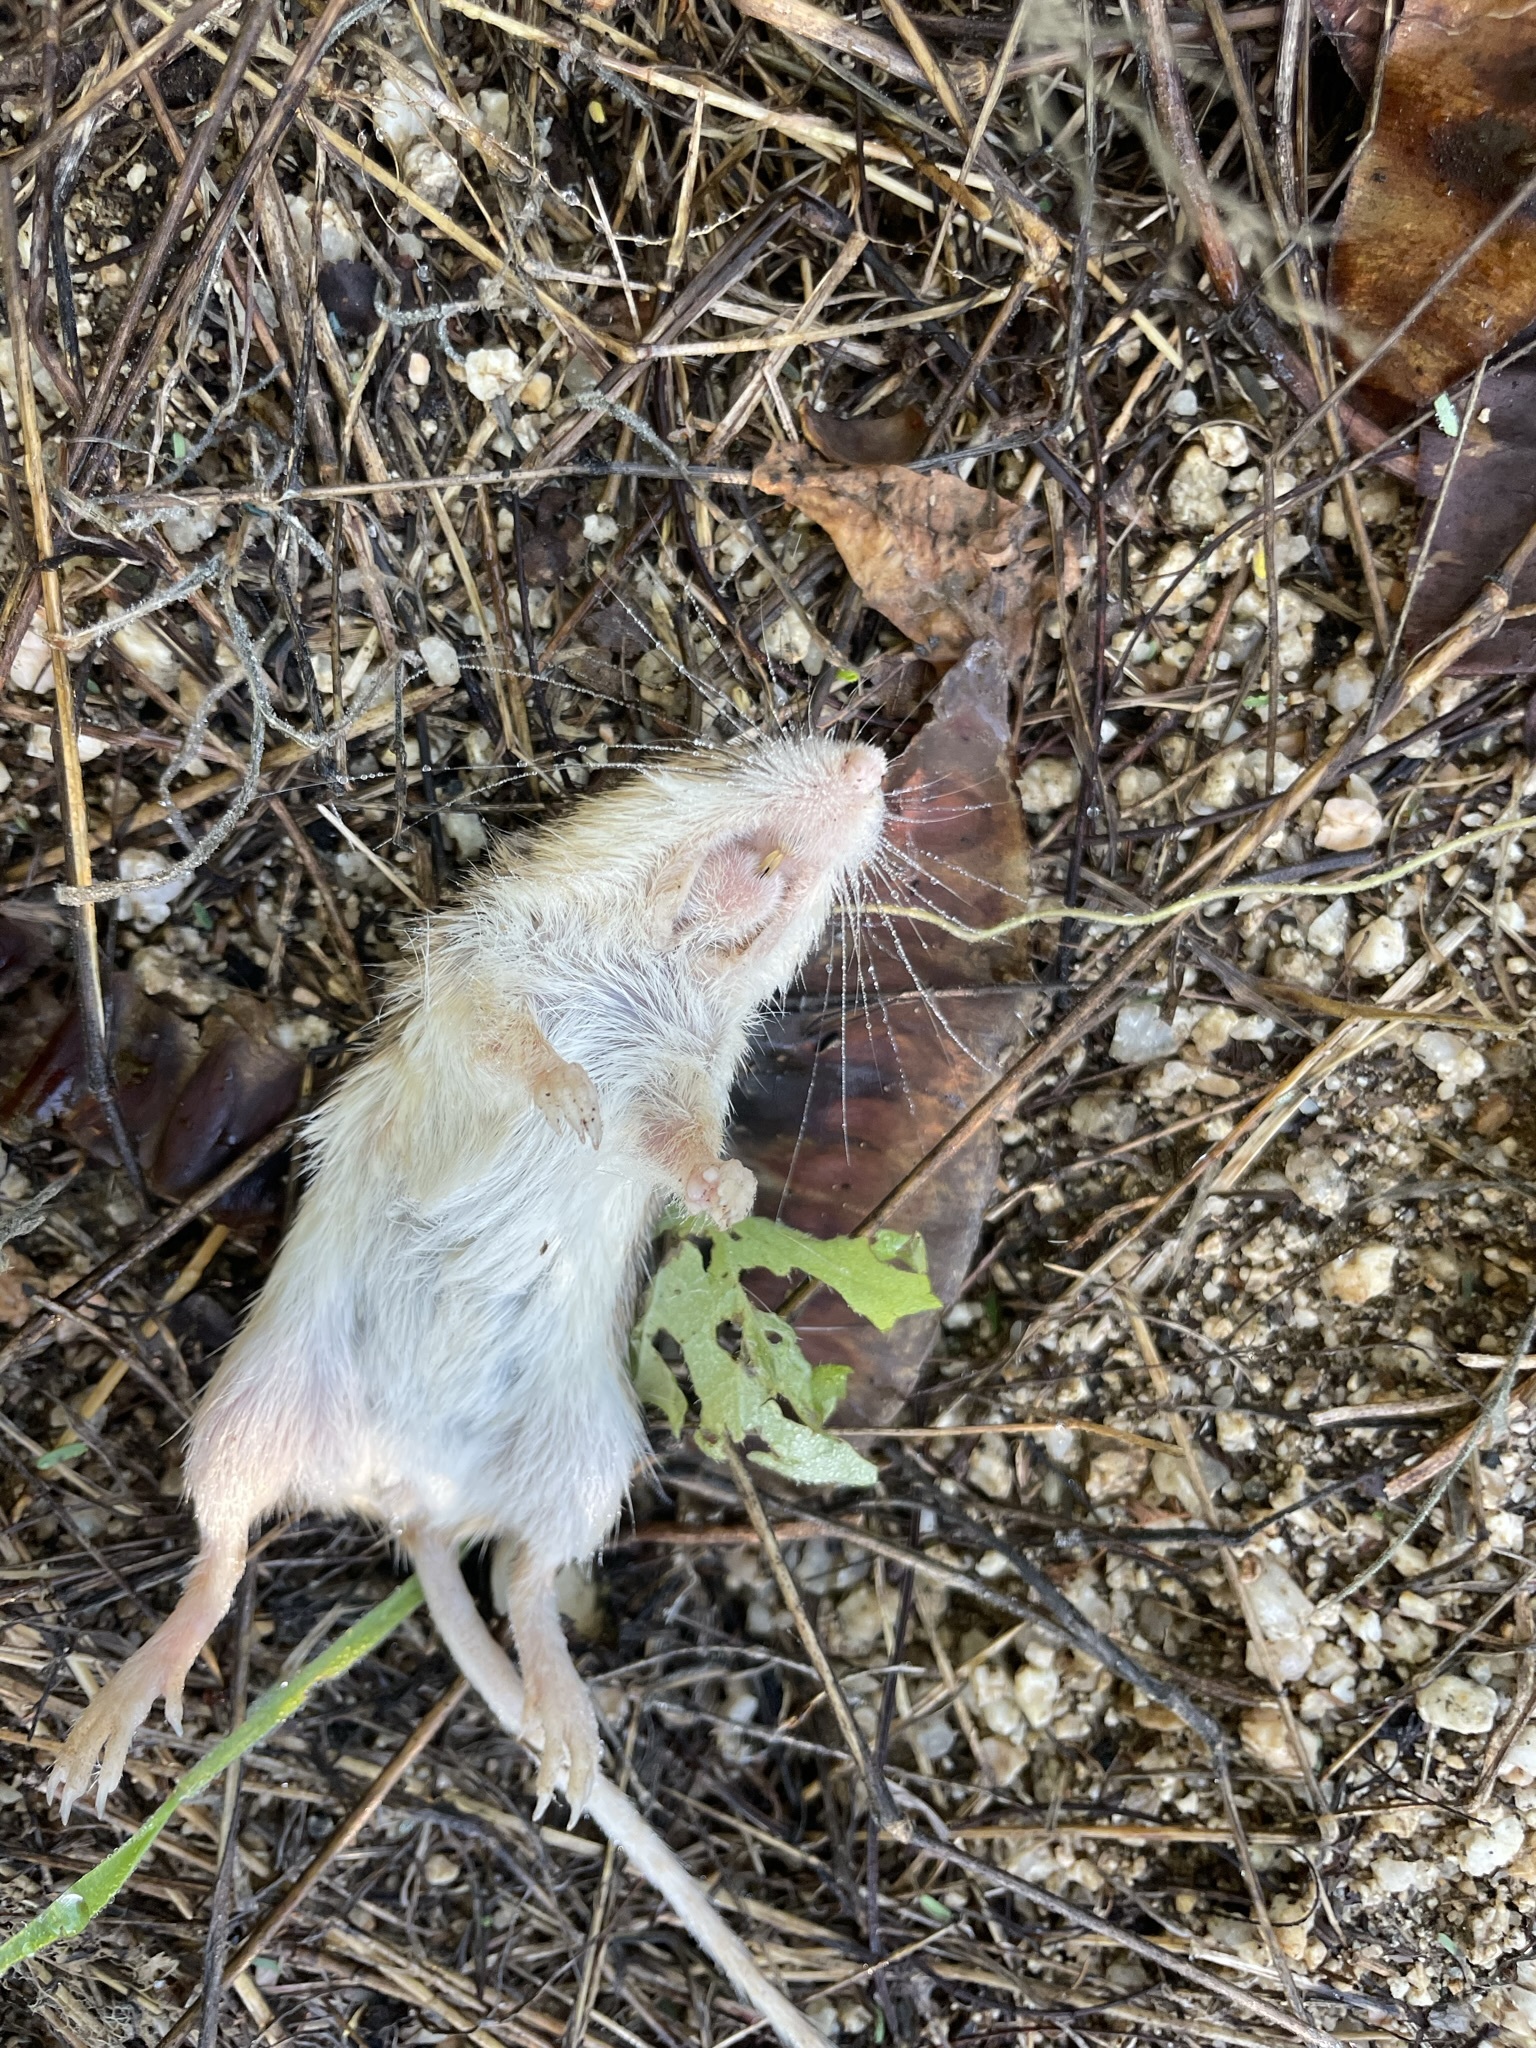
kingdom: Animalia
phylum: Chordata
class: Mammalia
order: Rodentia
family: Heteromyidae
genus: Chaetodipus
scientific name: Chaetodipus spinatus
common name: Spiny pocket mouse
